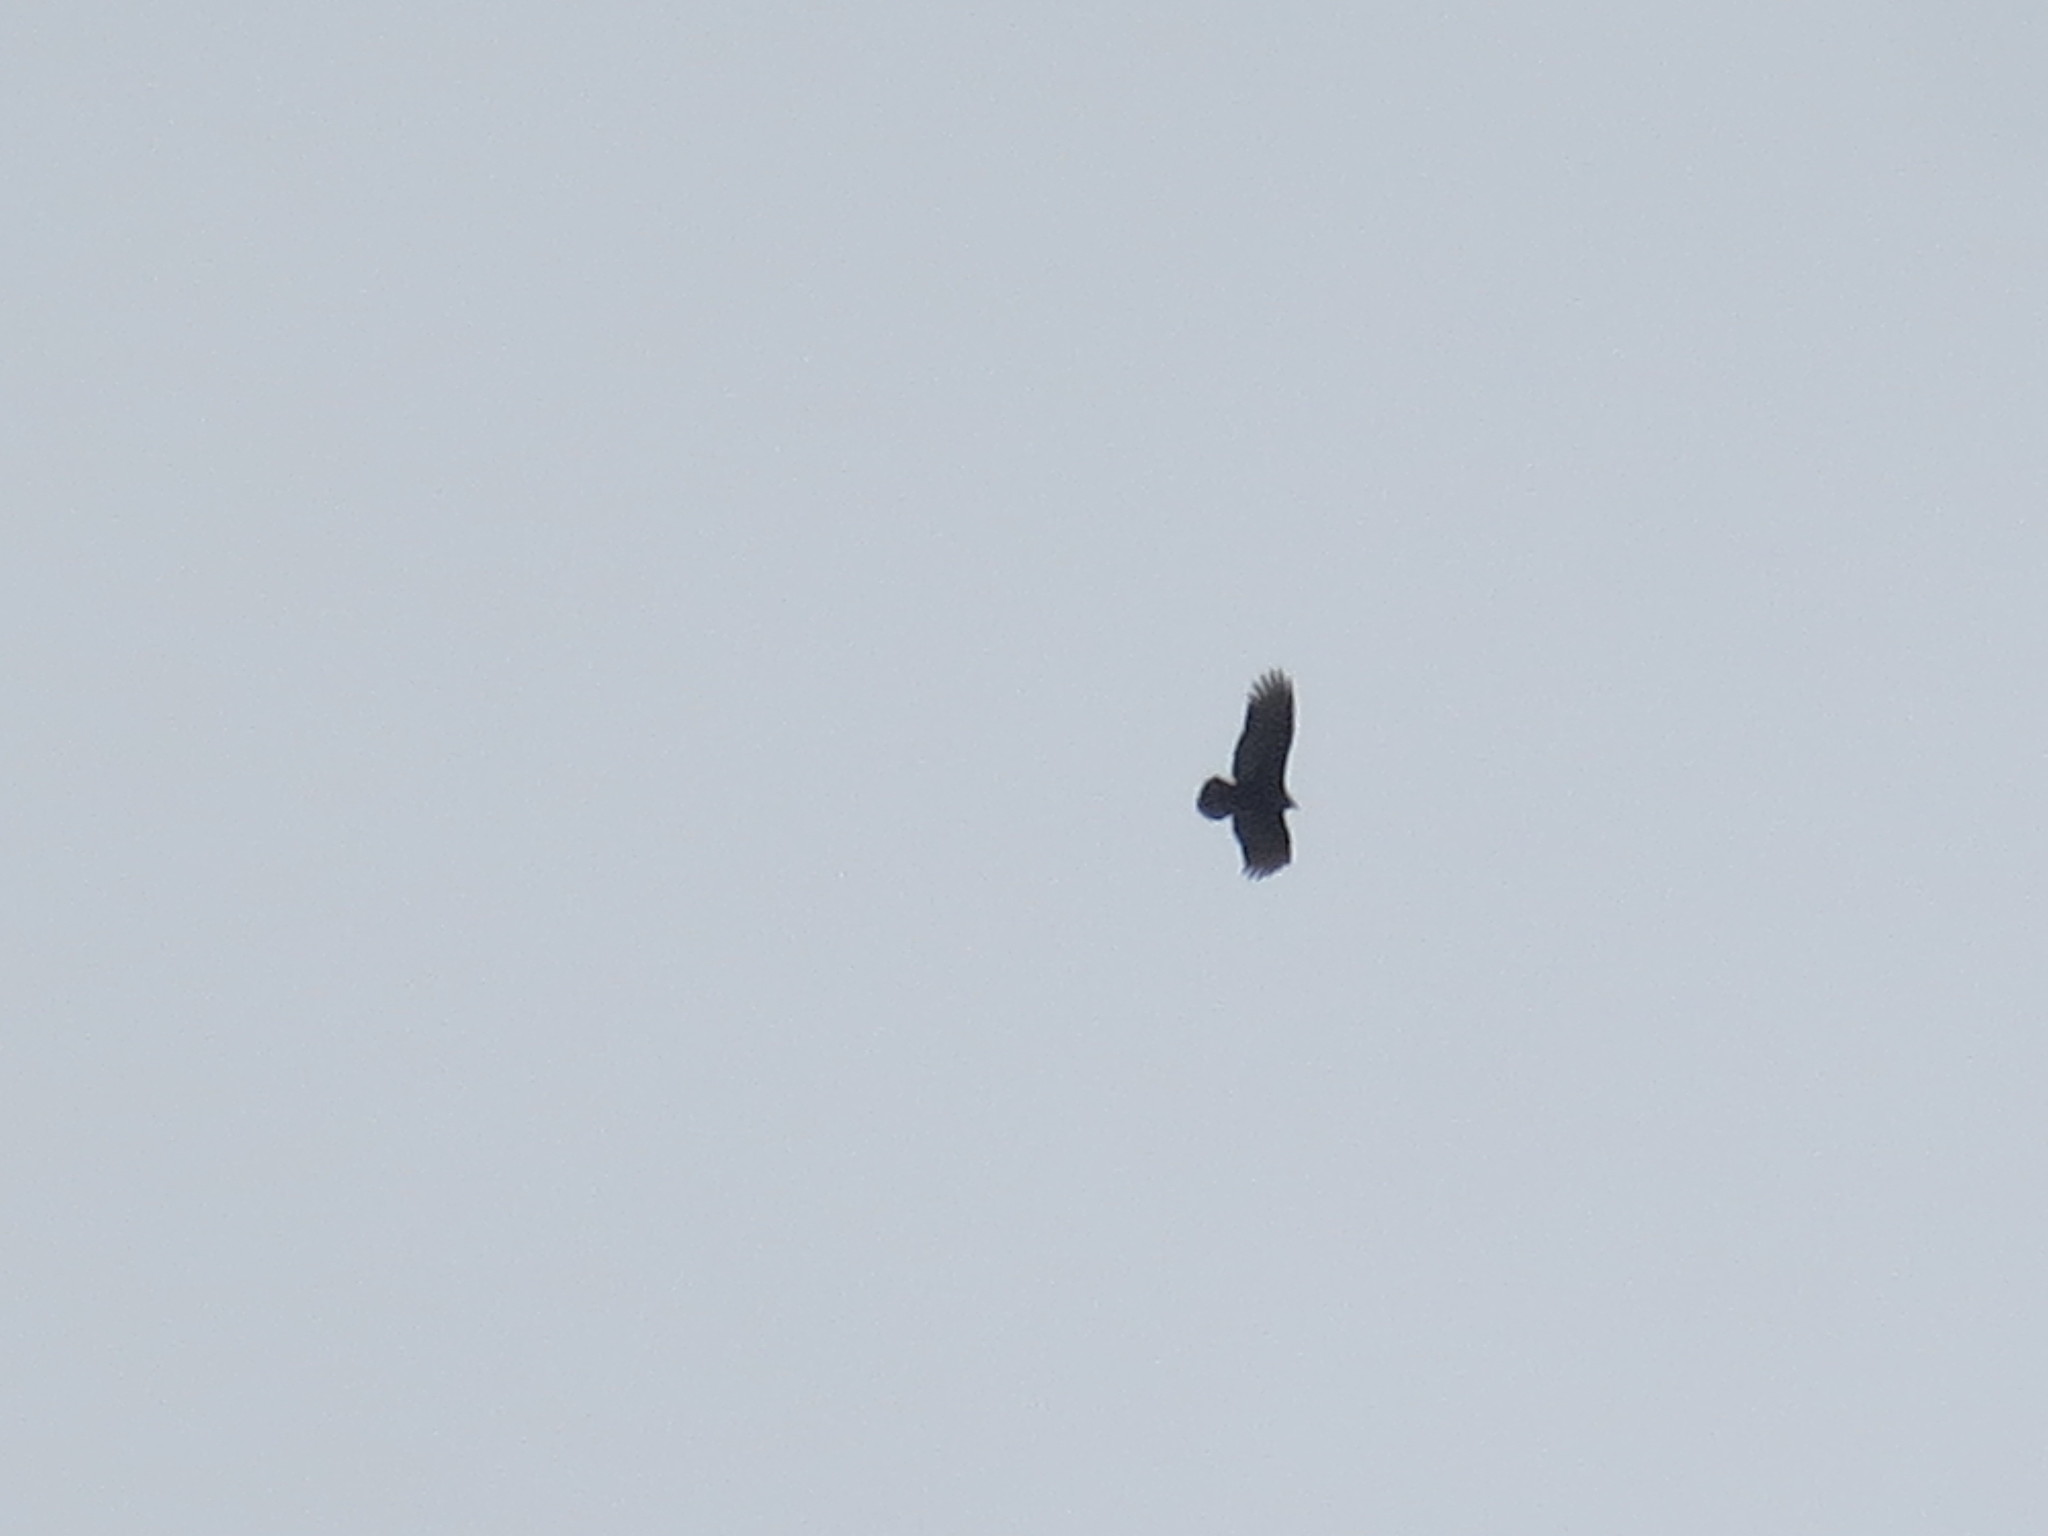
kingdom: Animalia
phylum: Chordata
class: Aves
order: Accipitriformes
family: Cathartidae
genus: Cathartes
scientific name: Cathartes aura
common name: Turkey vulture
